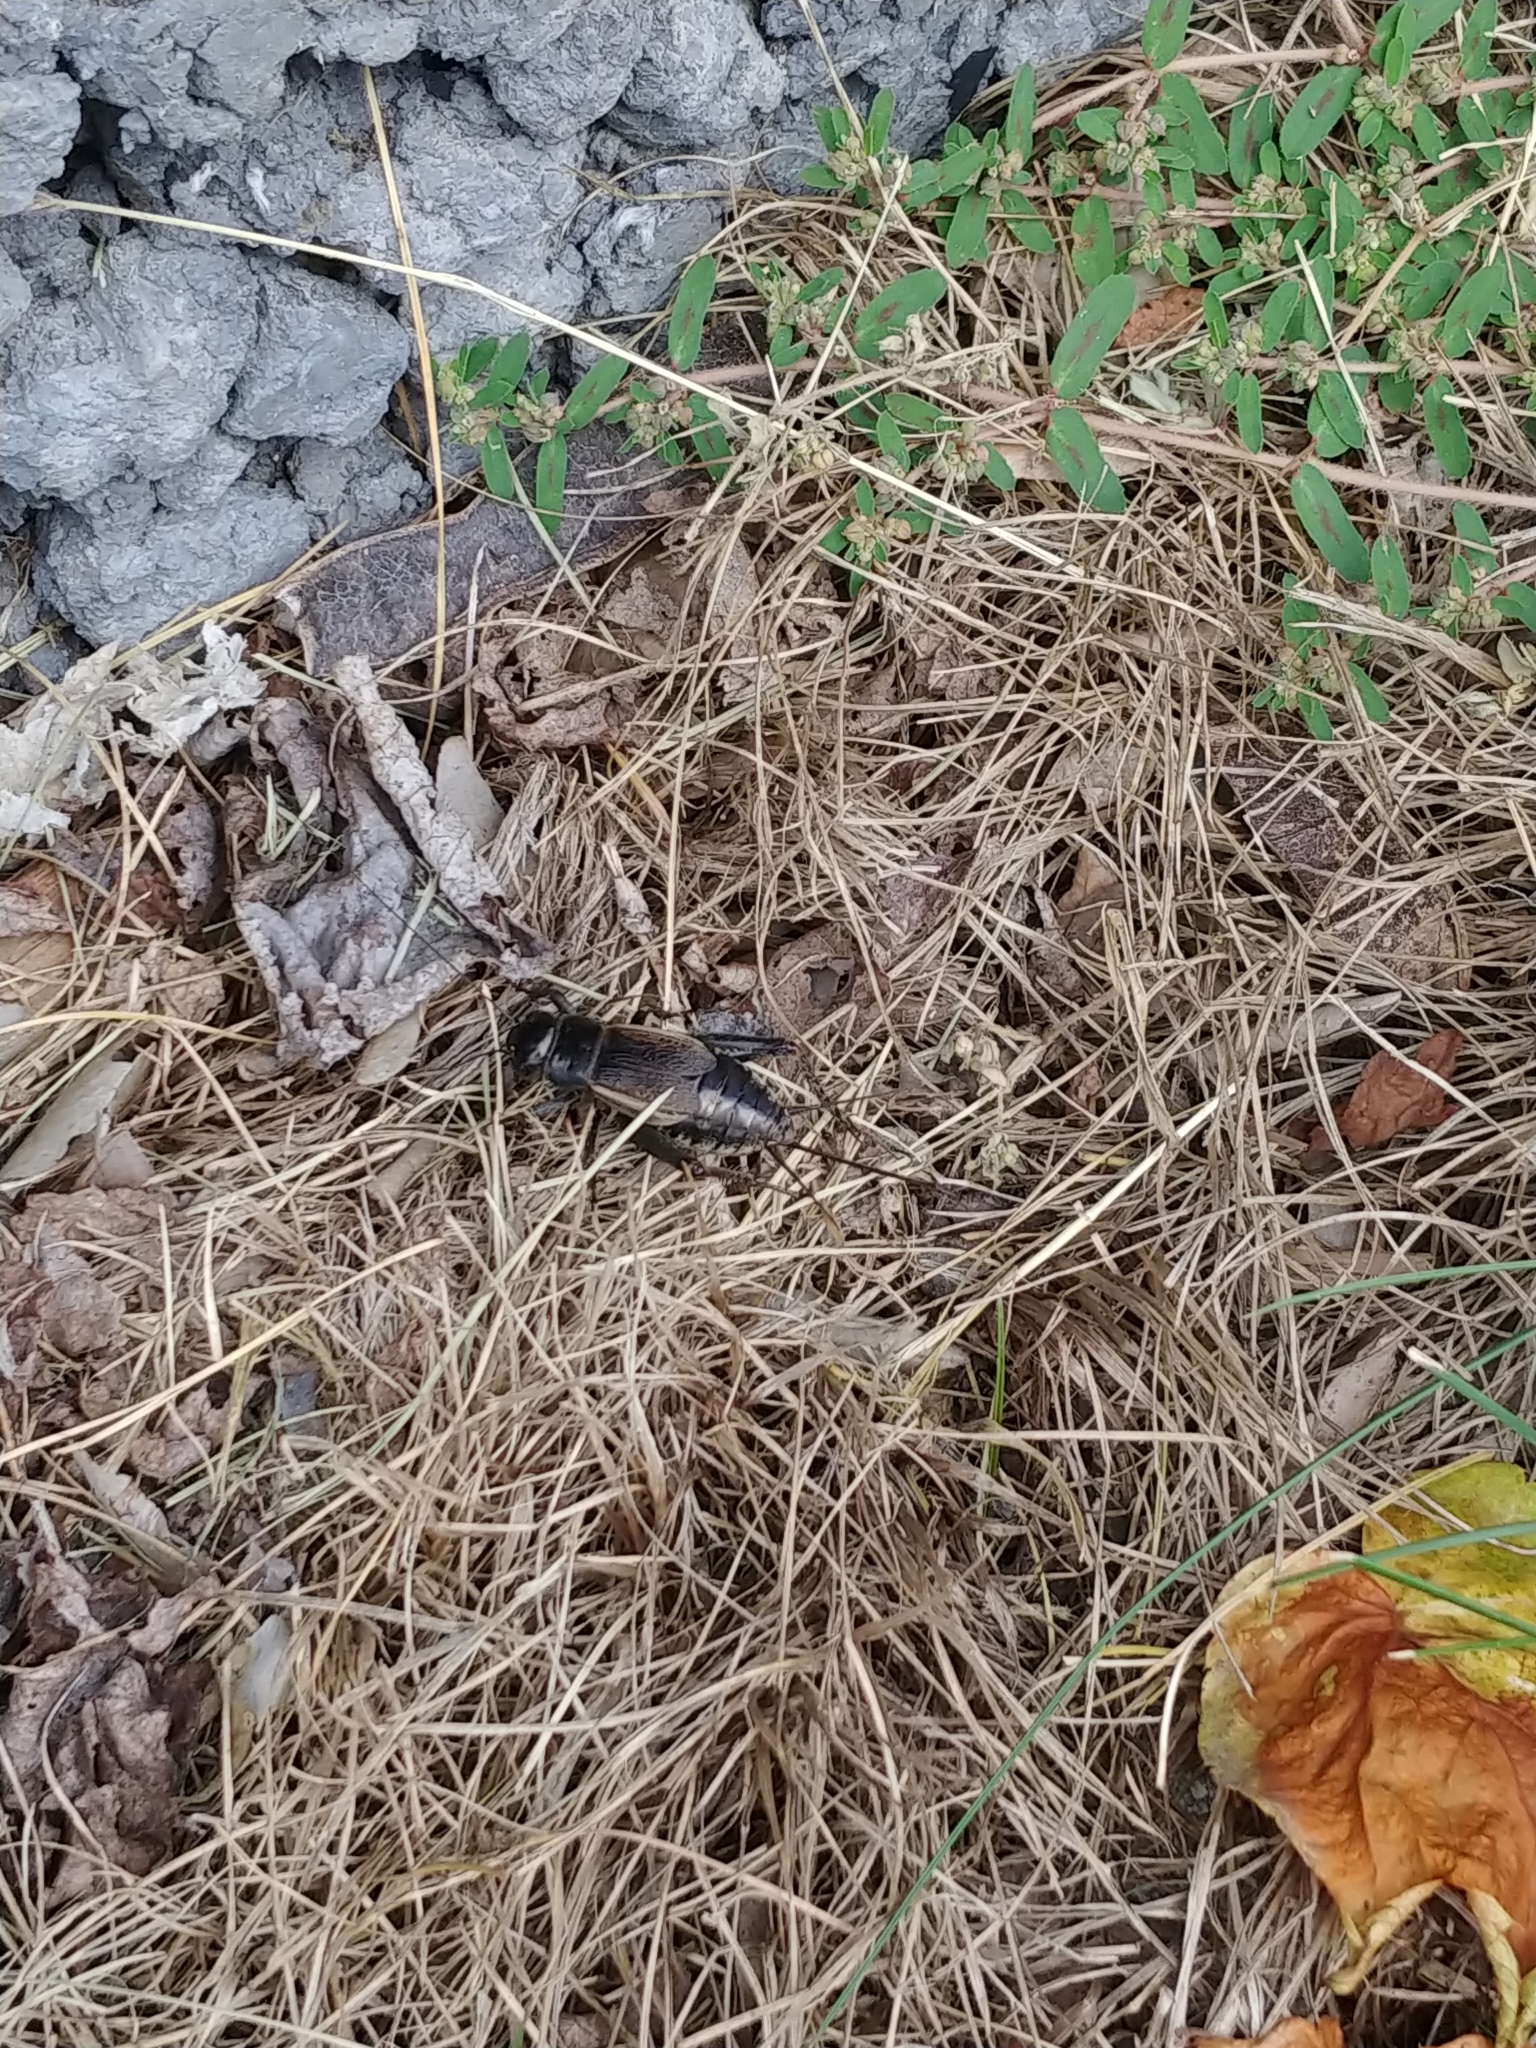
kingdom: Animalia
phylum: Arthropoda
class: Insecta
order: Orthoptera
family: Gryllidae
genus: Gryllus
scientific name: Gryllus pennsylvanicus
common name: Fall field cricket
